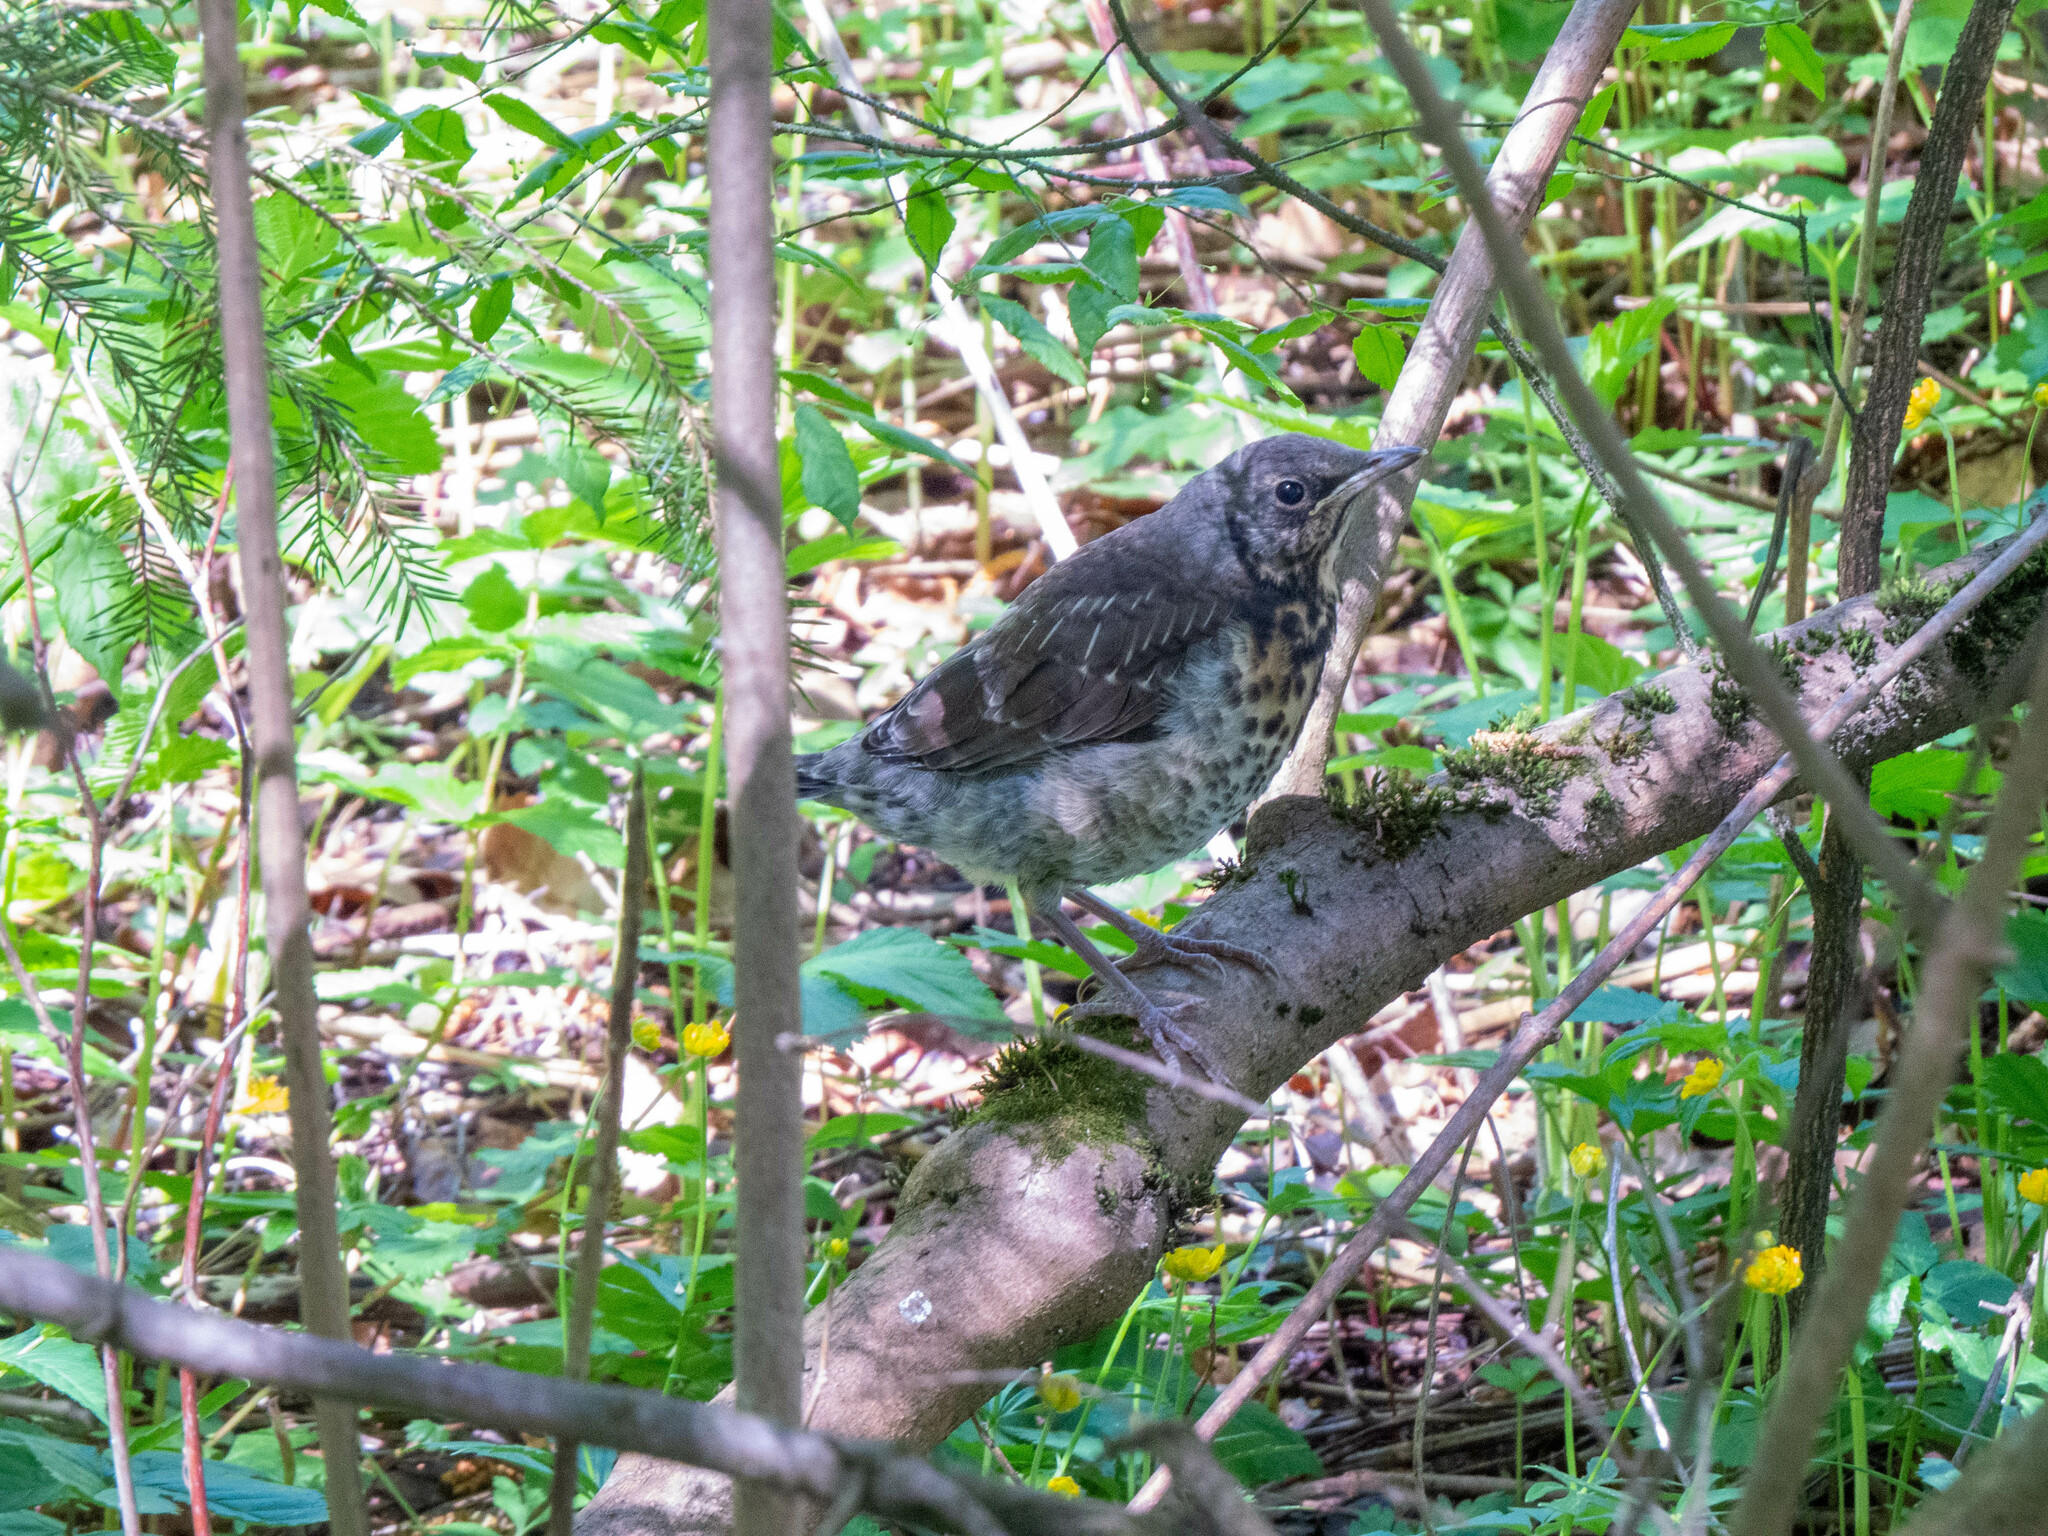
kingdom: Animalia
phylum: Chordata
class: Aves
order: Passeriformes
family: Turdidae
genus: Turdus
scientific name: Turdus pilaris
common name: Fieldfare
